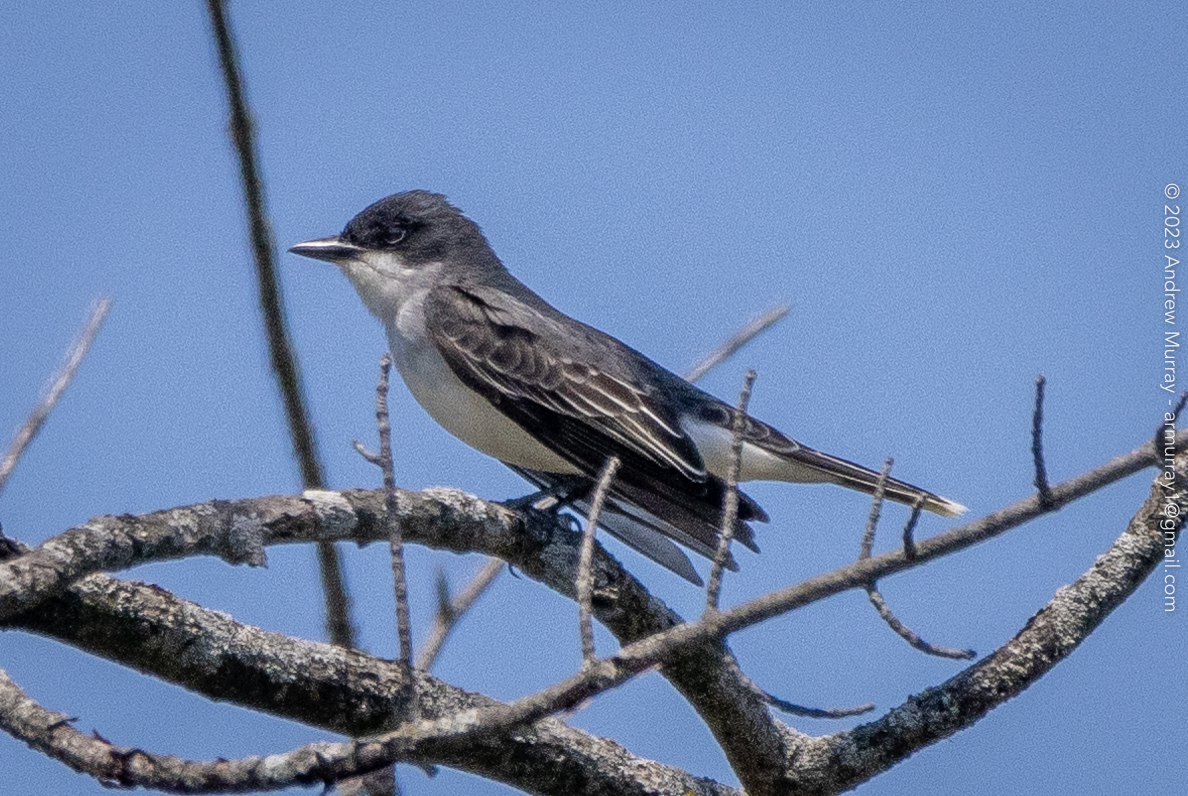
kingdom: Animalia
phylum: Chordata
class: Aves
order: Passeriformes
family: Tyrannidae
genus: Tyrannus
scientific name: Tyrannus tyrannus
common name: Eastern kingbird
